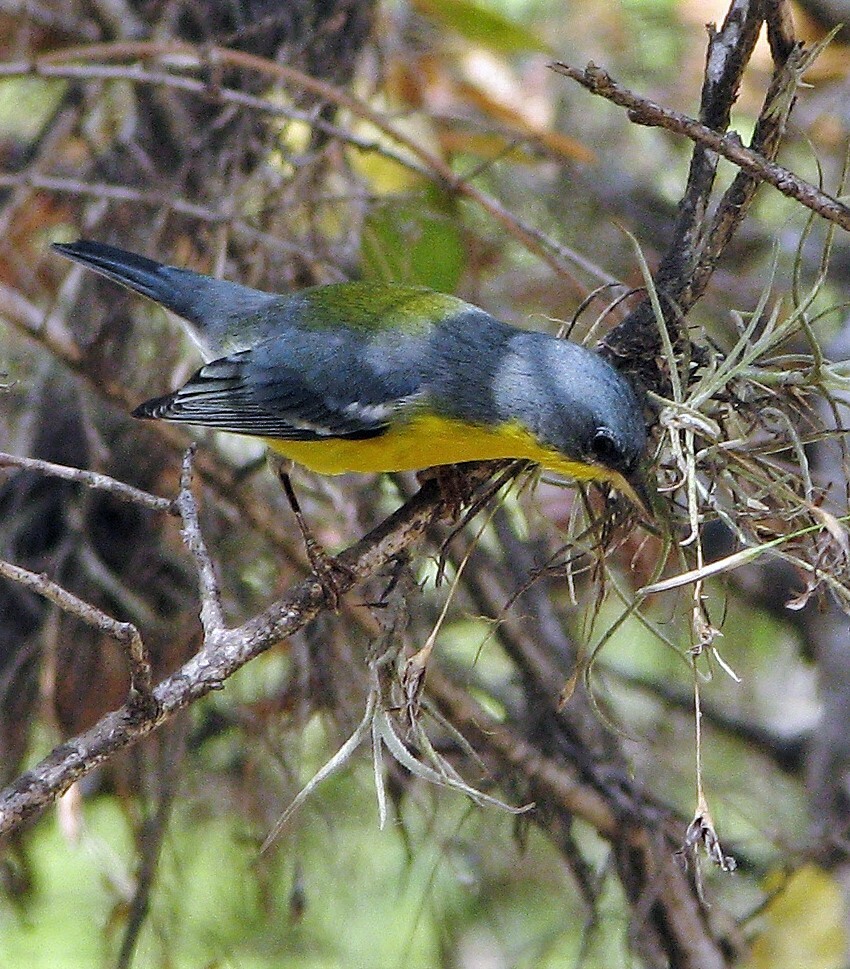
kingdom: Animalia
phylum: Chordata
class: Aves
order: Passeriformes
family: Parulidae
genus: Setophaga
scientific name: Setophaga pitiayumi
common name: Tropical parula
